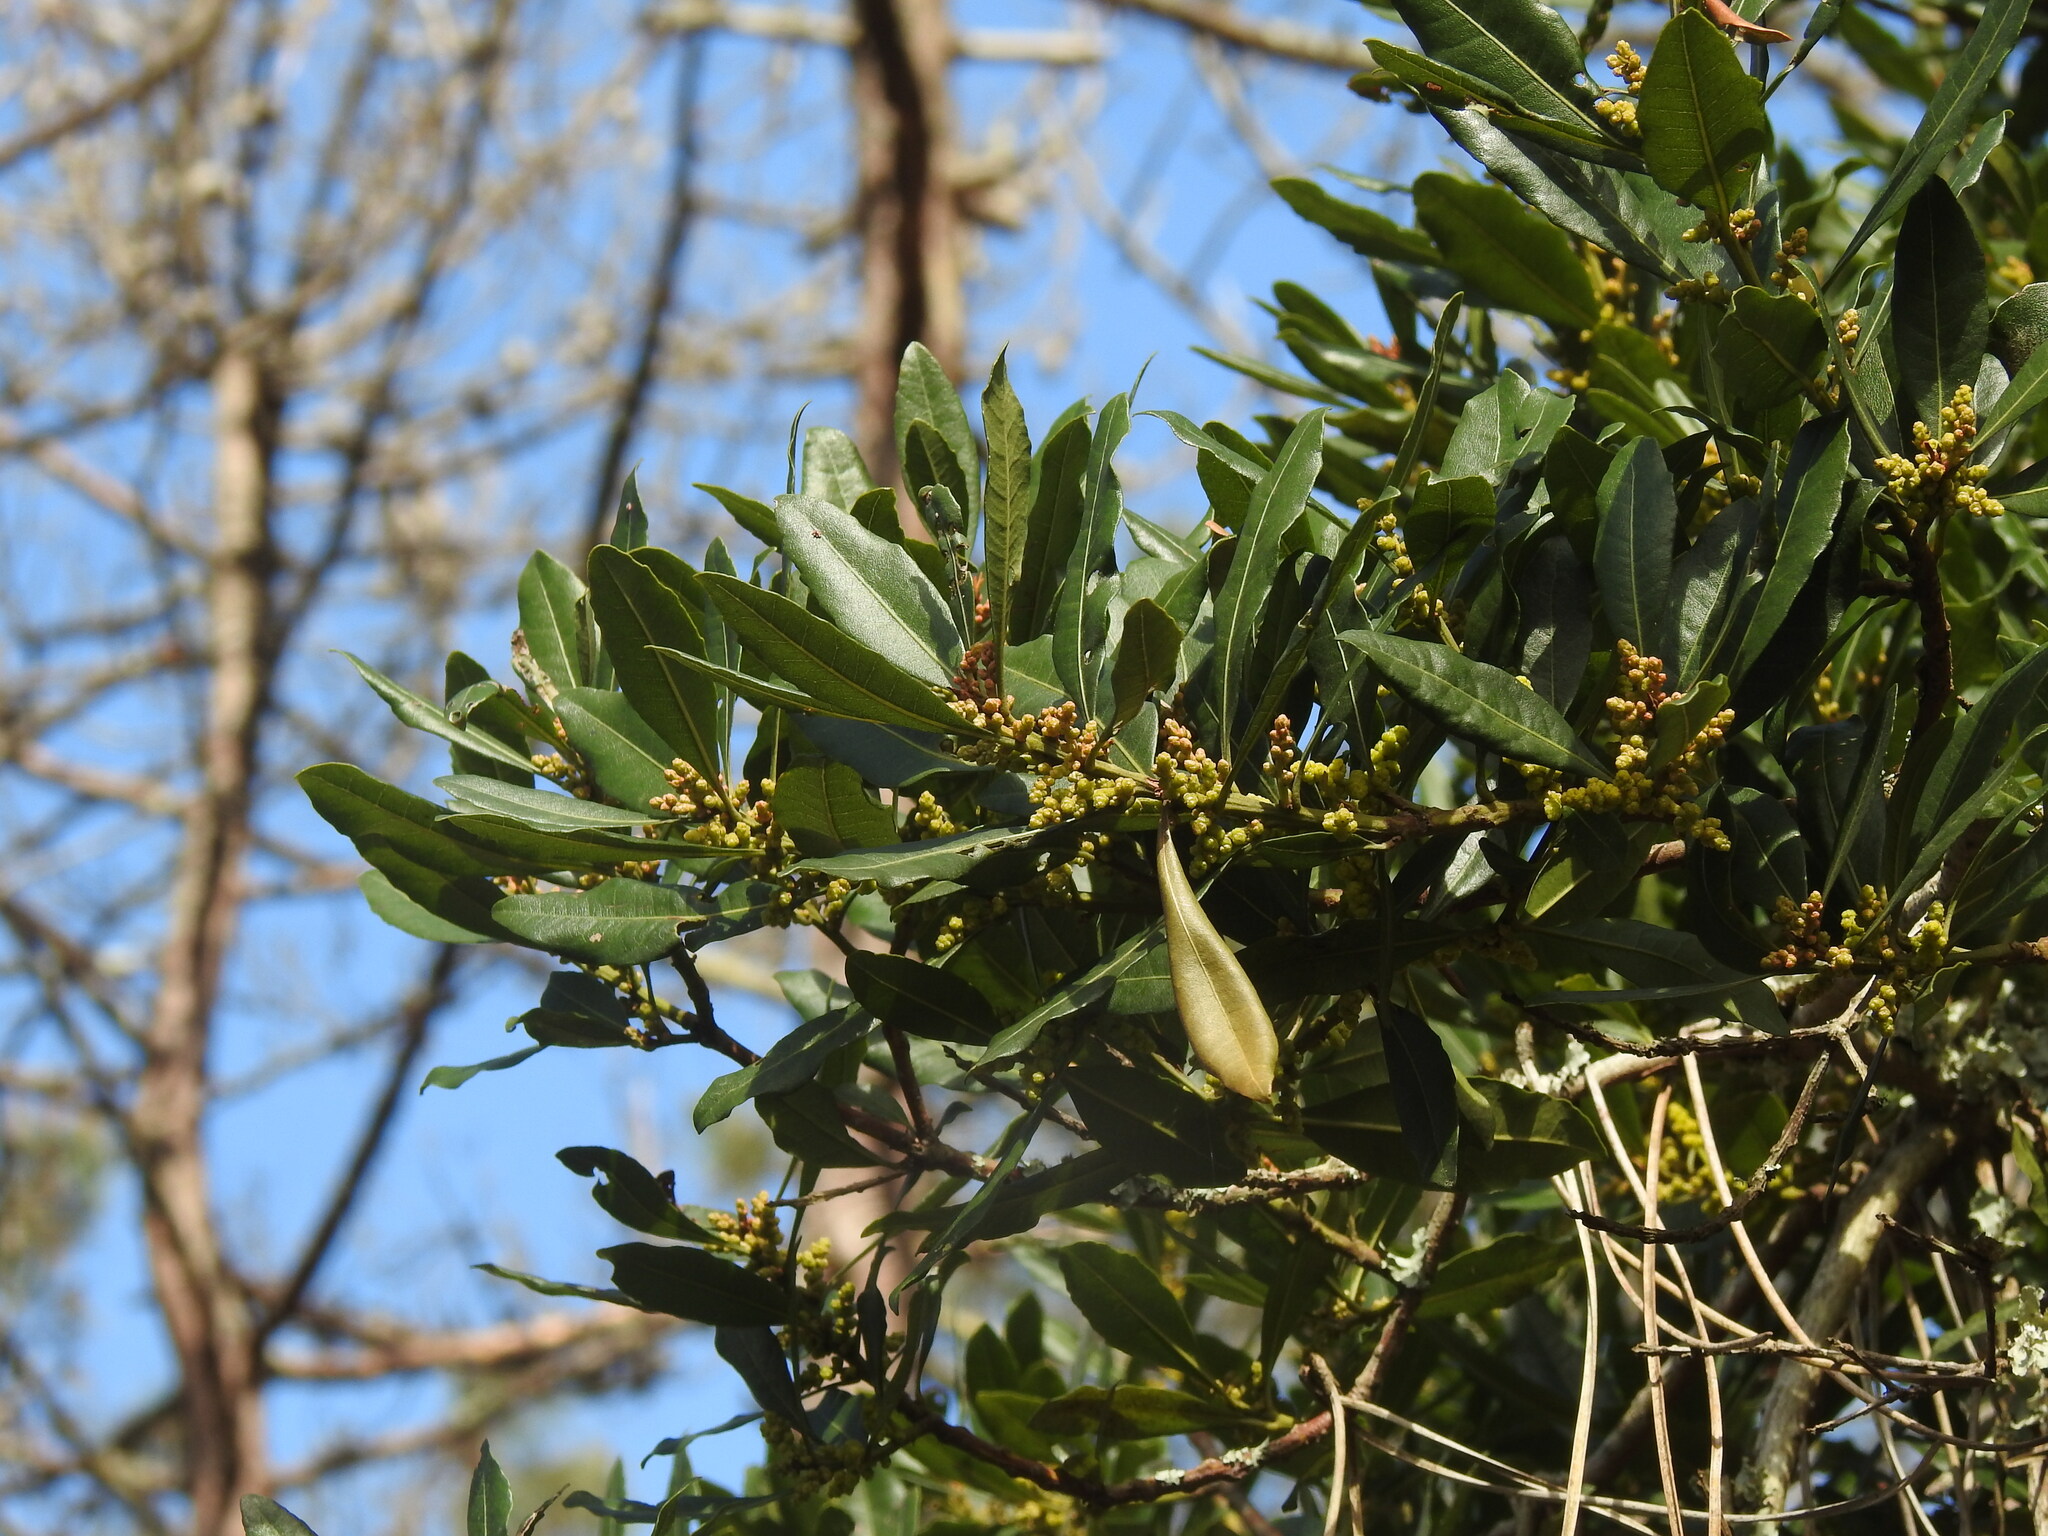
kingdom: Plantae
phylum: Tracheophyta
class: Magnoliopsida
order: Fagales
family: Myricaceae
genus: Morella
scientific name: Morella faya
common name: Firetree
